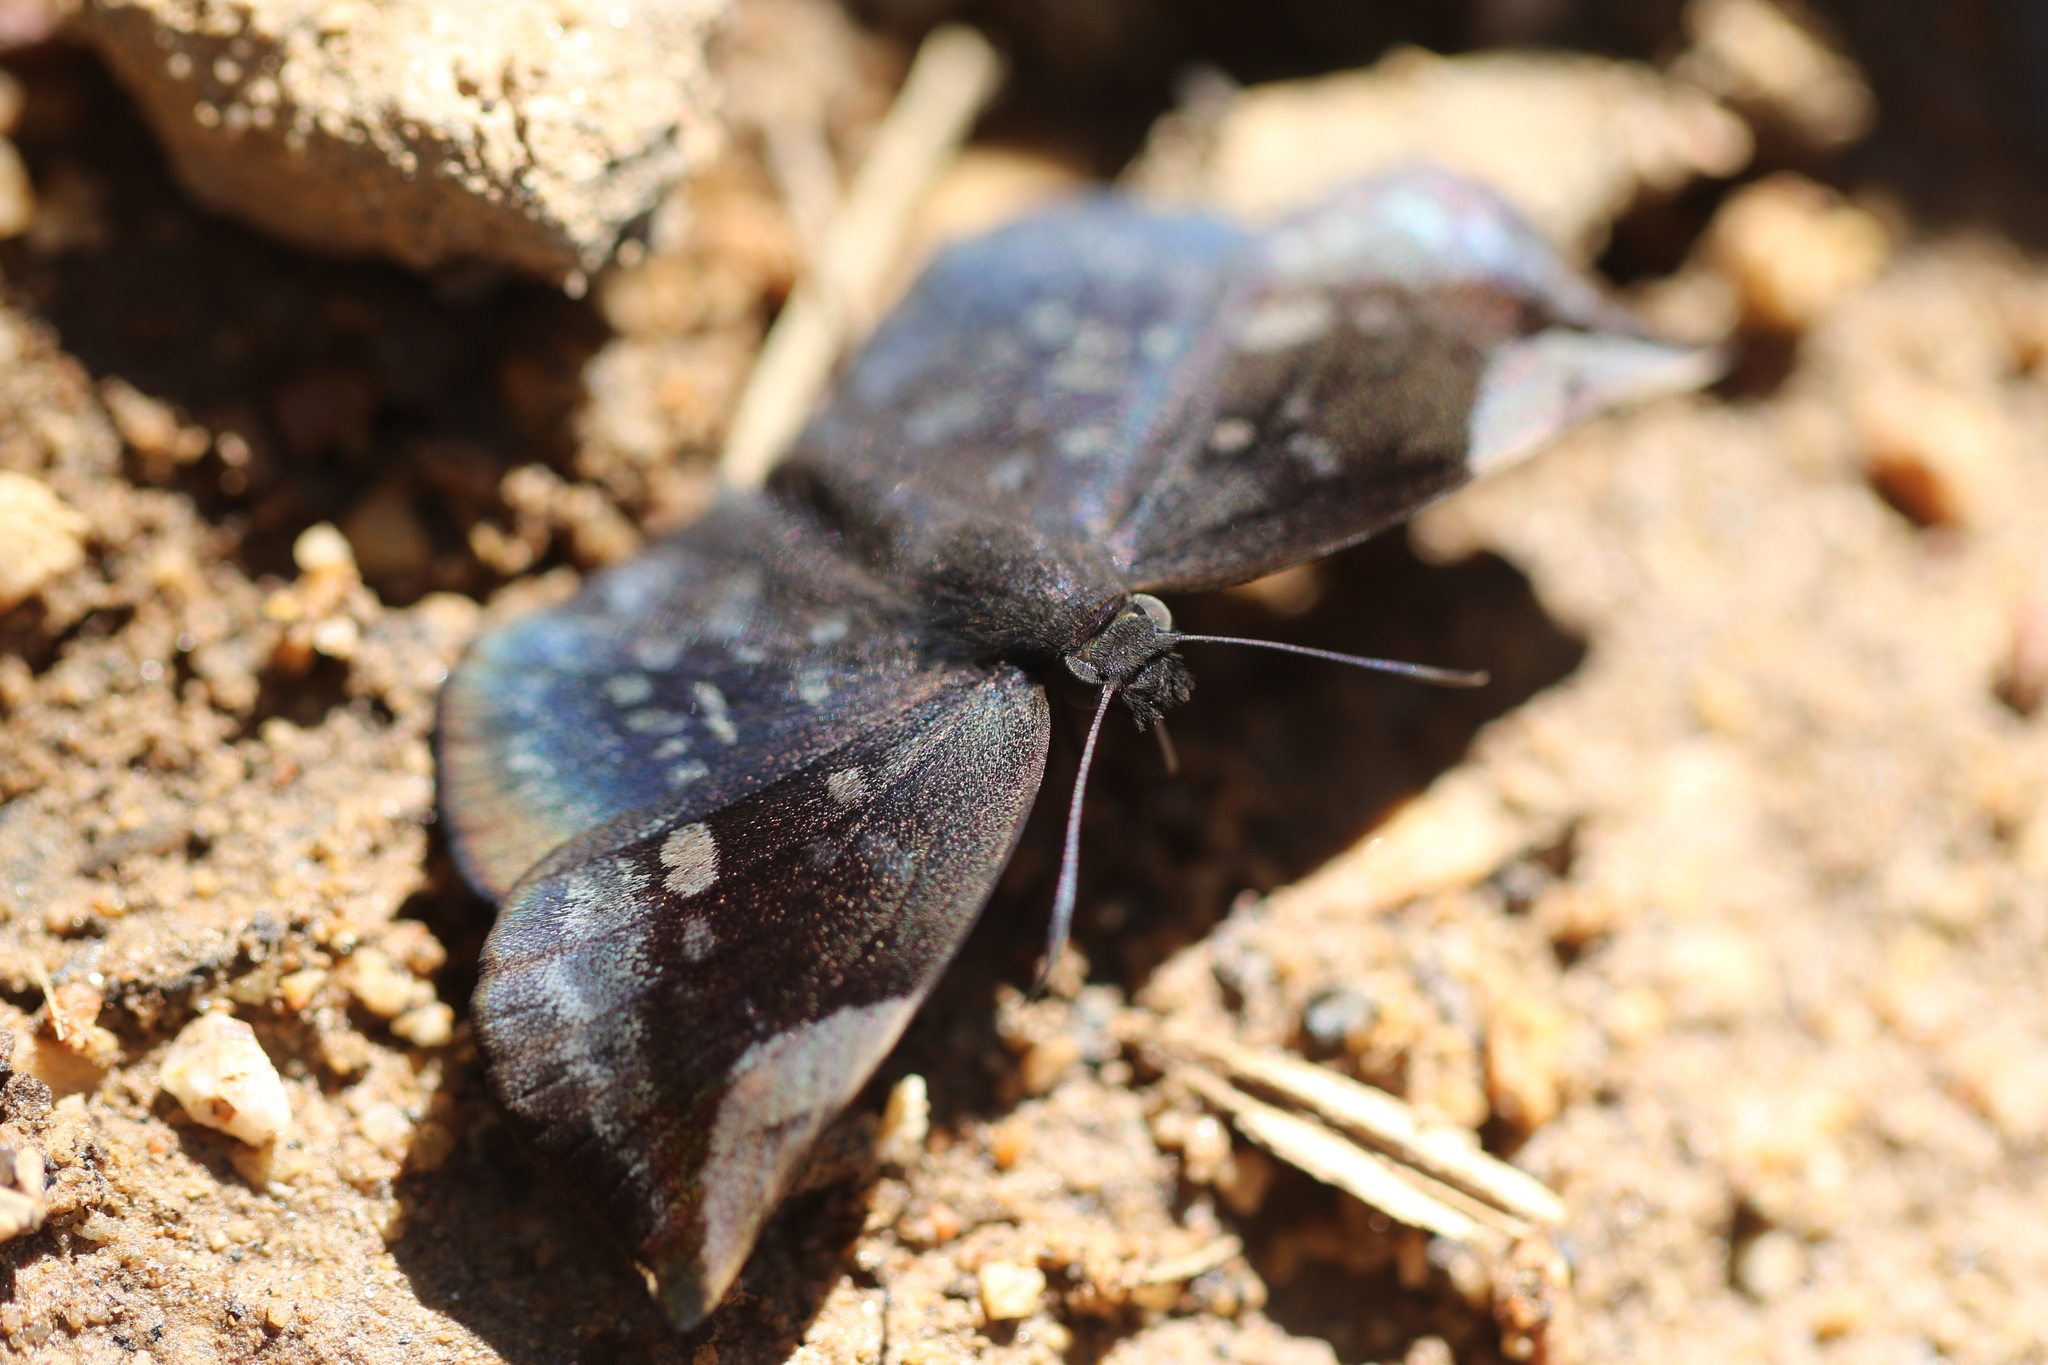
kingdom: Animalia
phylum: Arthropoda
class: Insecta
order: Lepidoptera
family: Hesperiidae
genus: Achlyodes
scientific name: Achlyodes thraso
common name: Sickle-winged skipper
